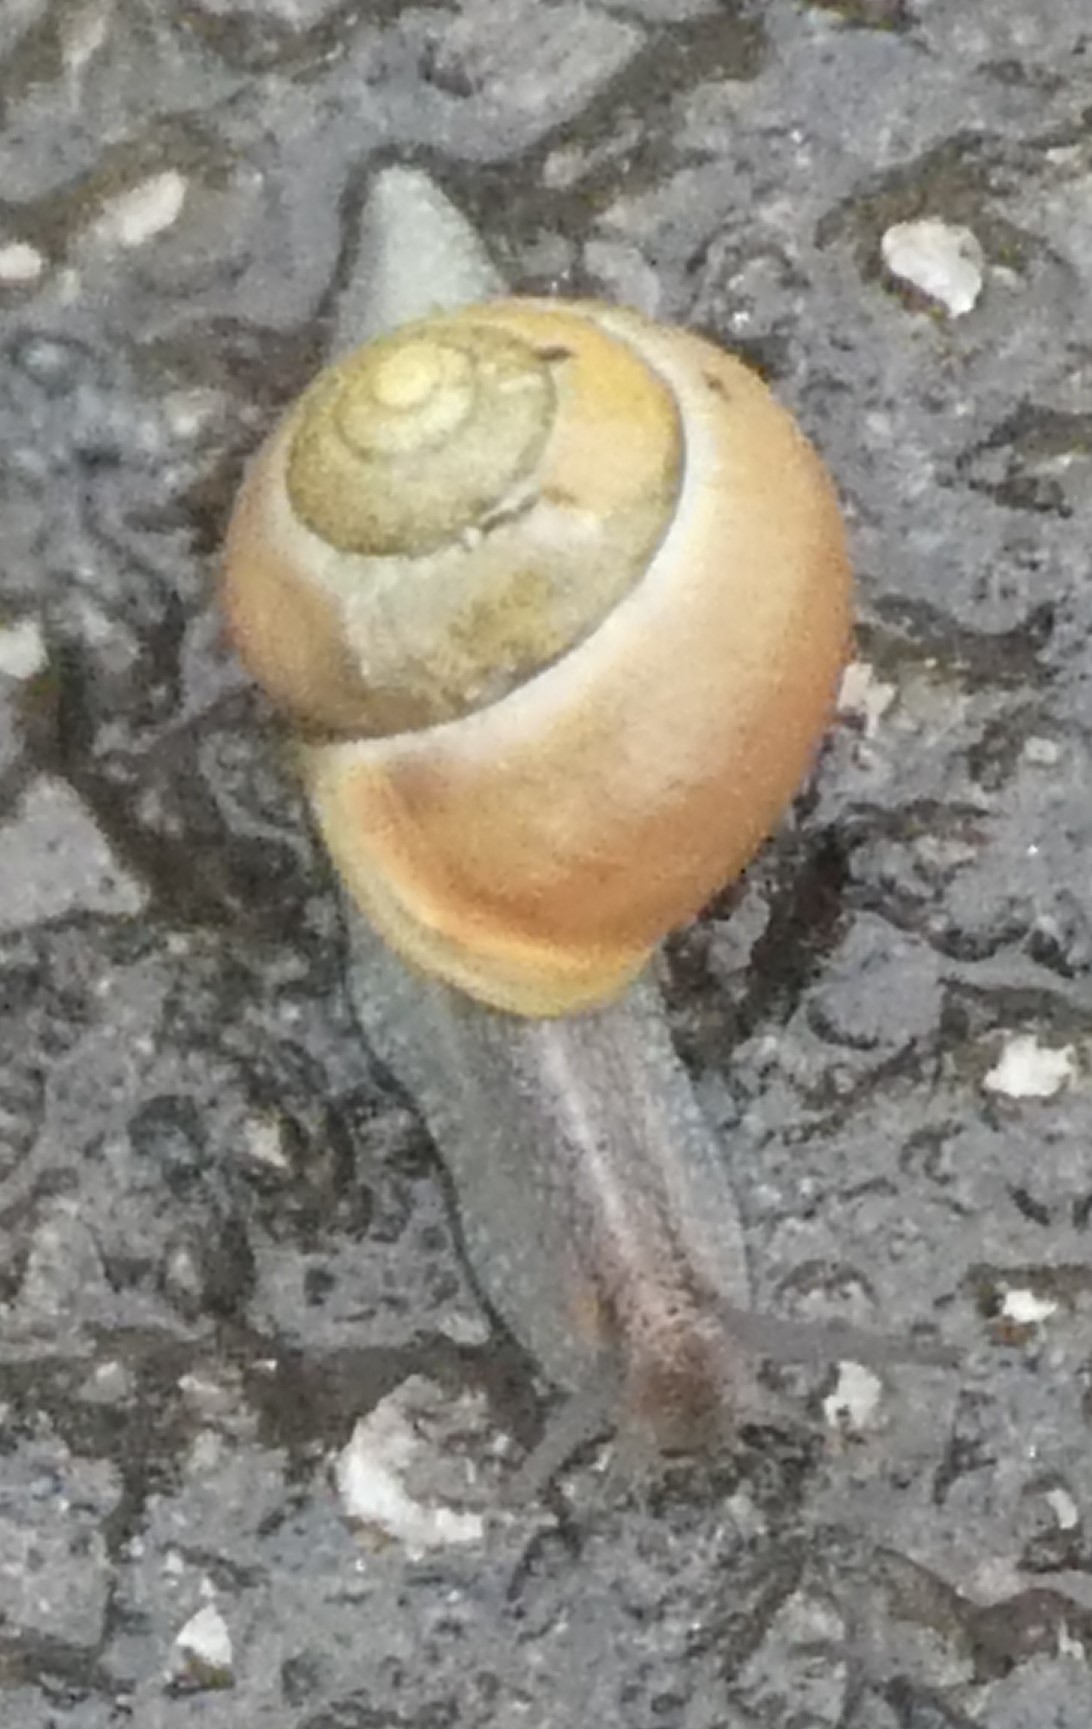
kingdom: Animalia
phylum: Mollusca
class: Gastropoda
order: Stylommatophora
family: Helicidae
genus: Cepaea
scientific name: Cepaea hortensis
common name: White-lip gardensnail
